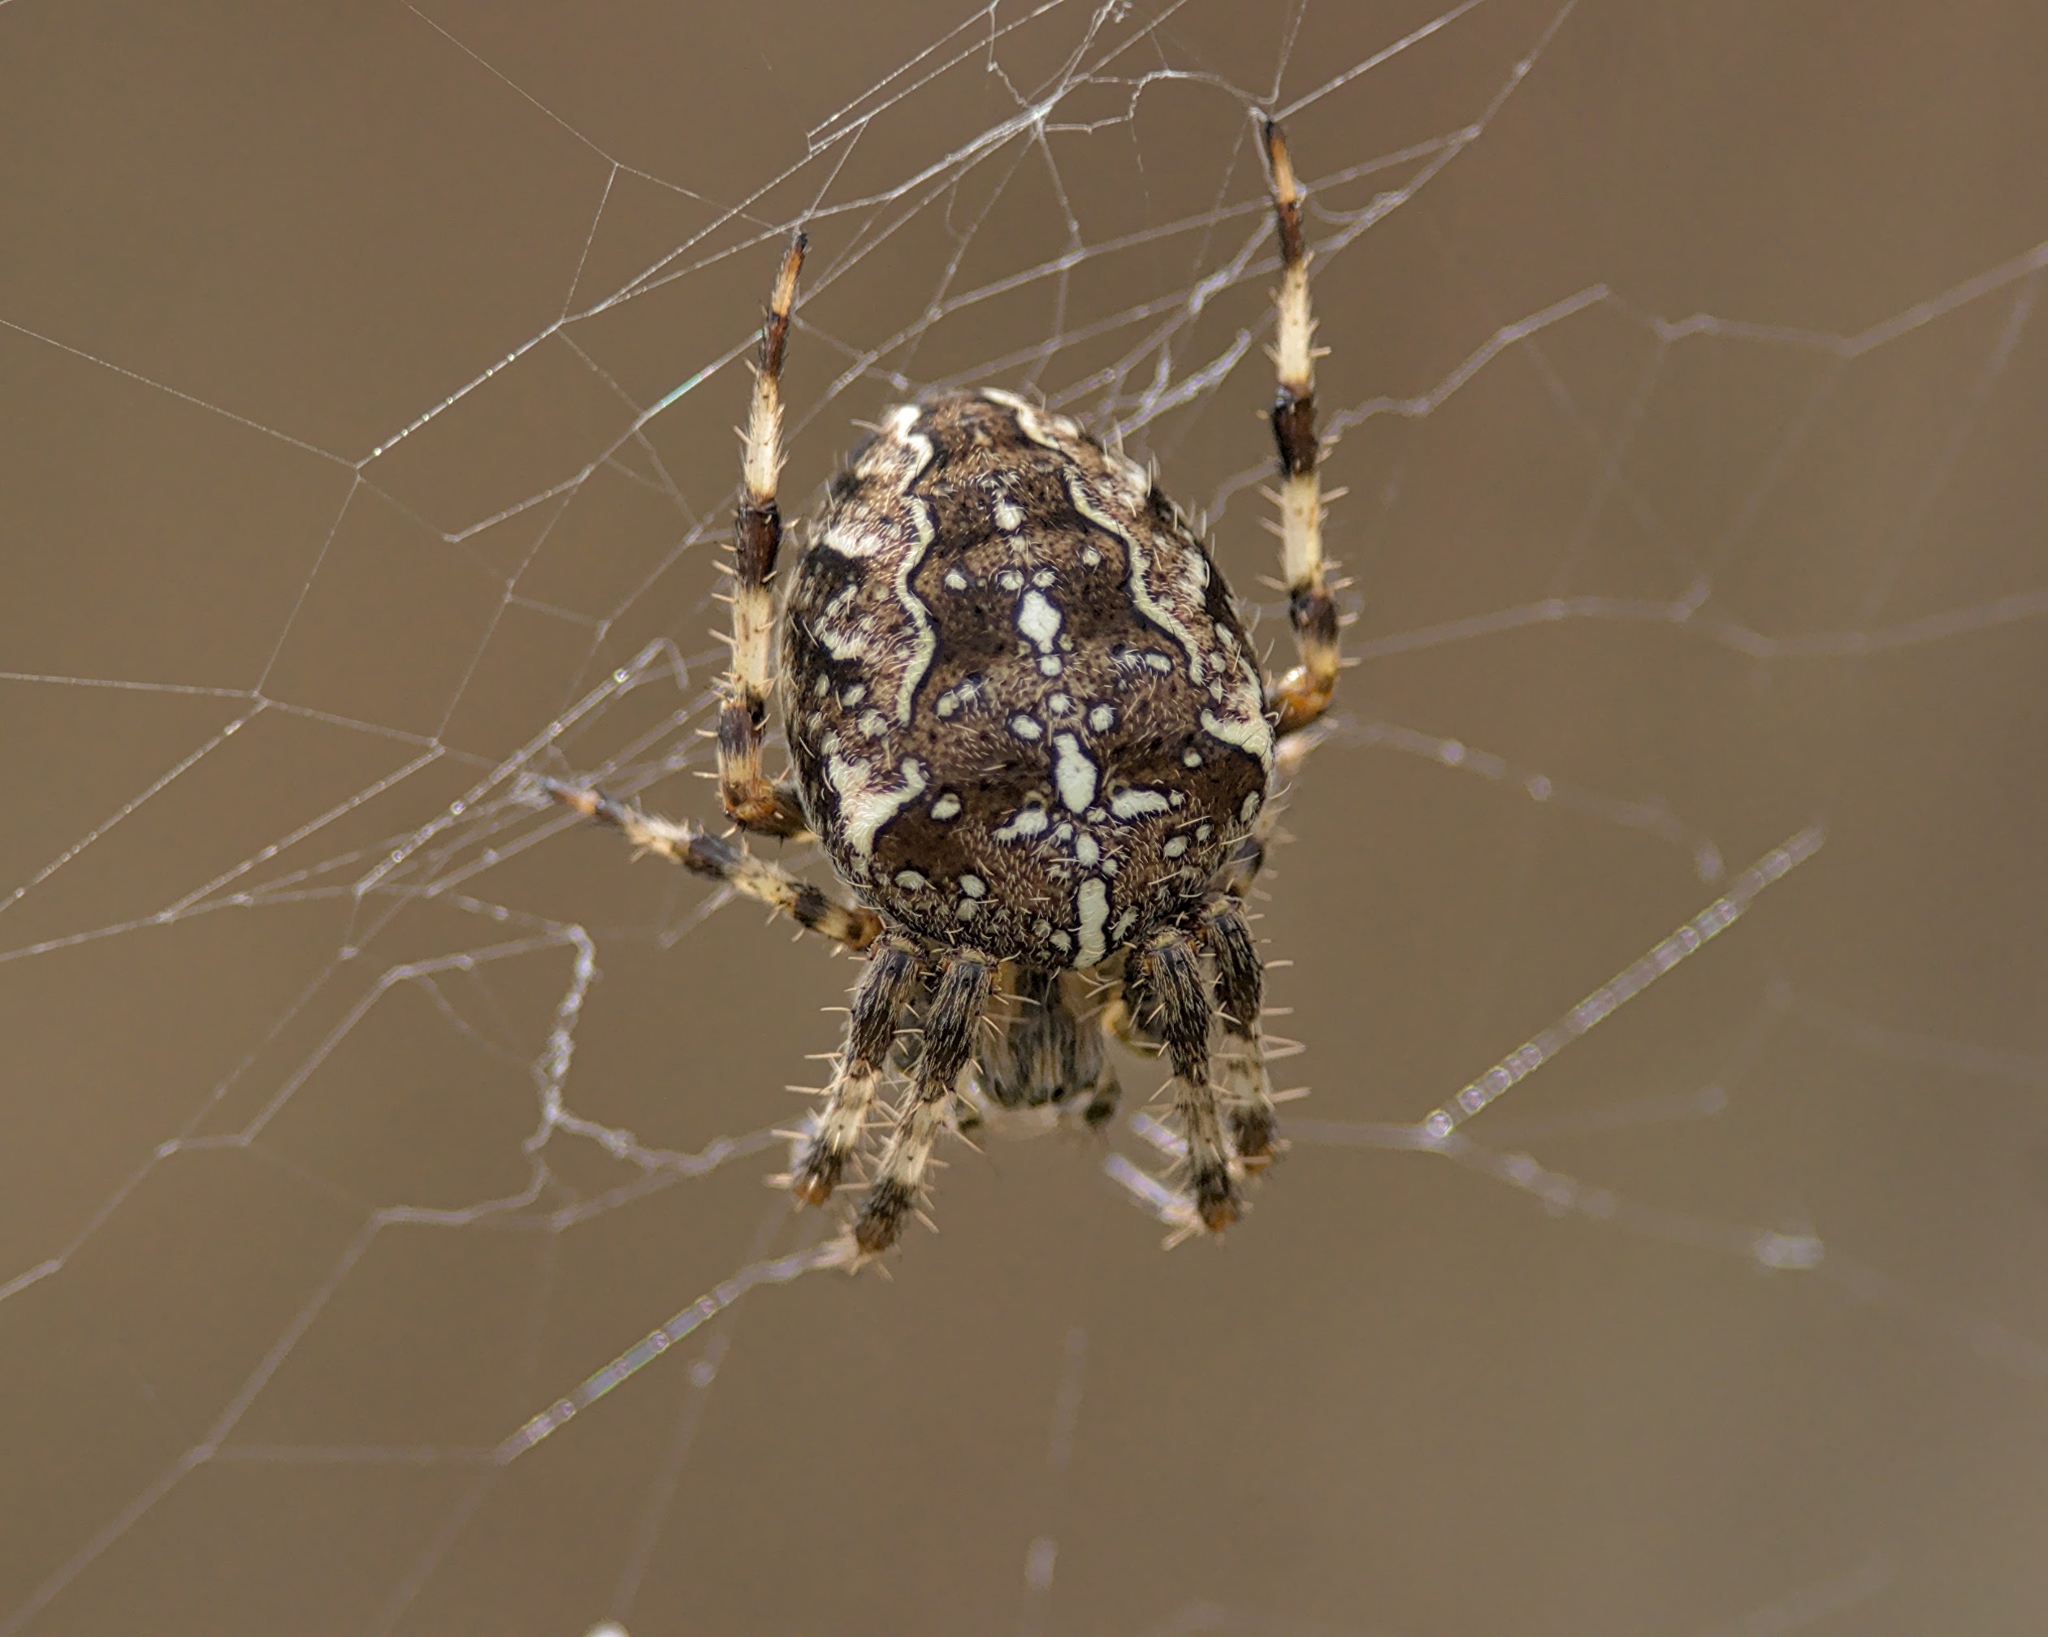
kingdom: Animalia
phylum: Arthropoda
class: Arachnida
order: Araneae
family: Araneidae
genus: Araneus
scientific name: Araneus diadematus
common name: Cross orbweaver
